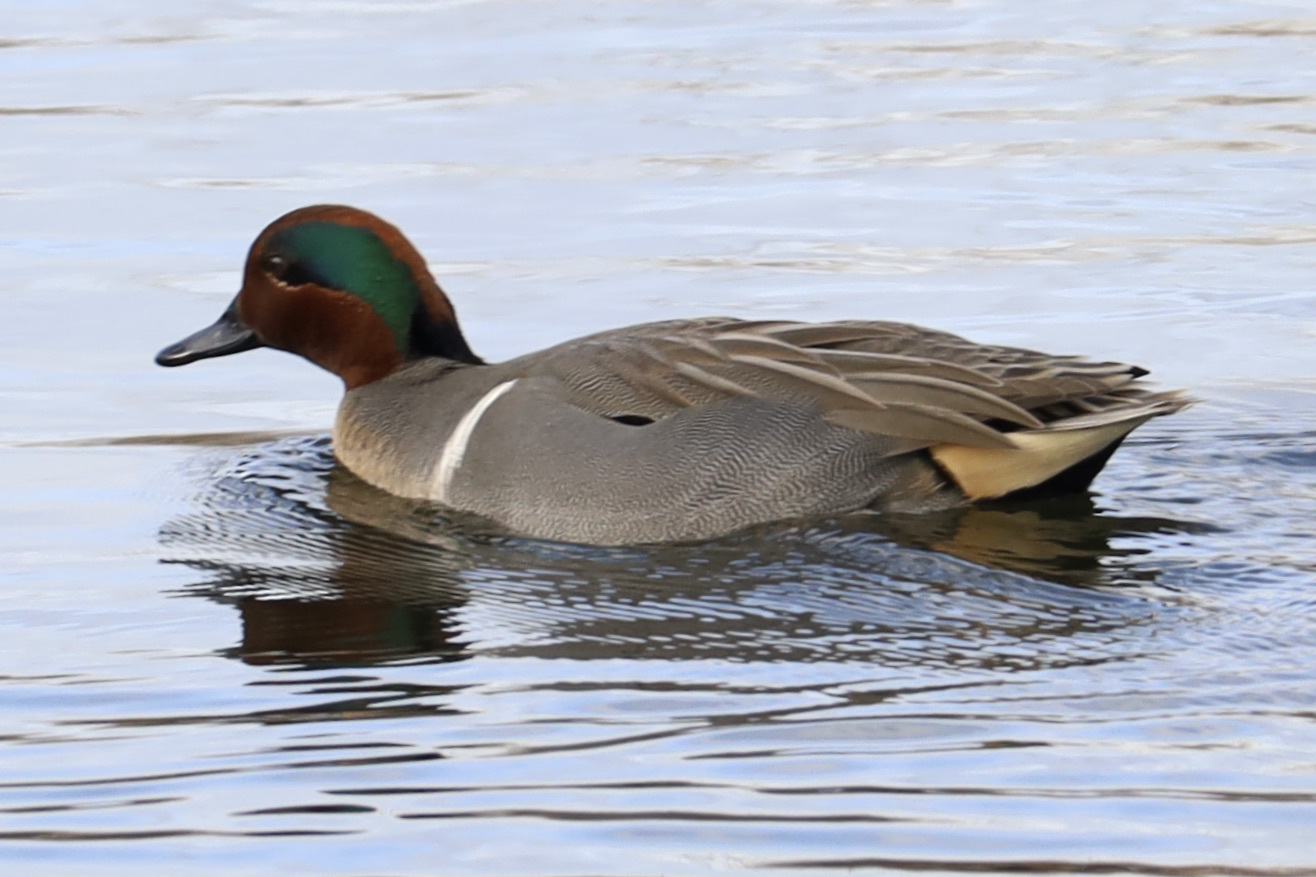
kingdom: Animalia
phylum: Chordata
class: Aves
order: Anseriformes
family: Anatidae
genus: Anas
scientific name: Anas crecca
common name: Eurasian teal
